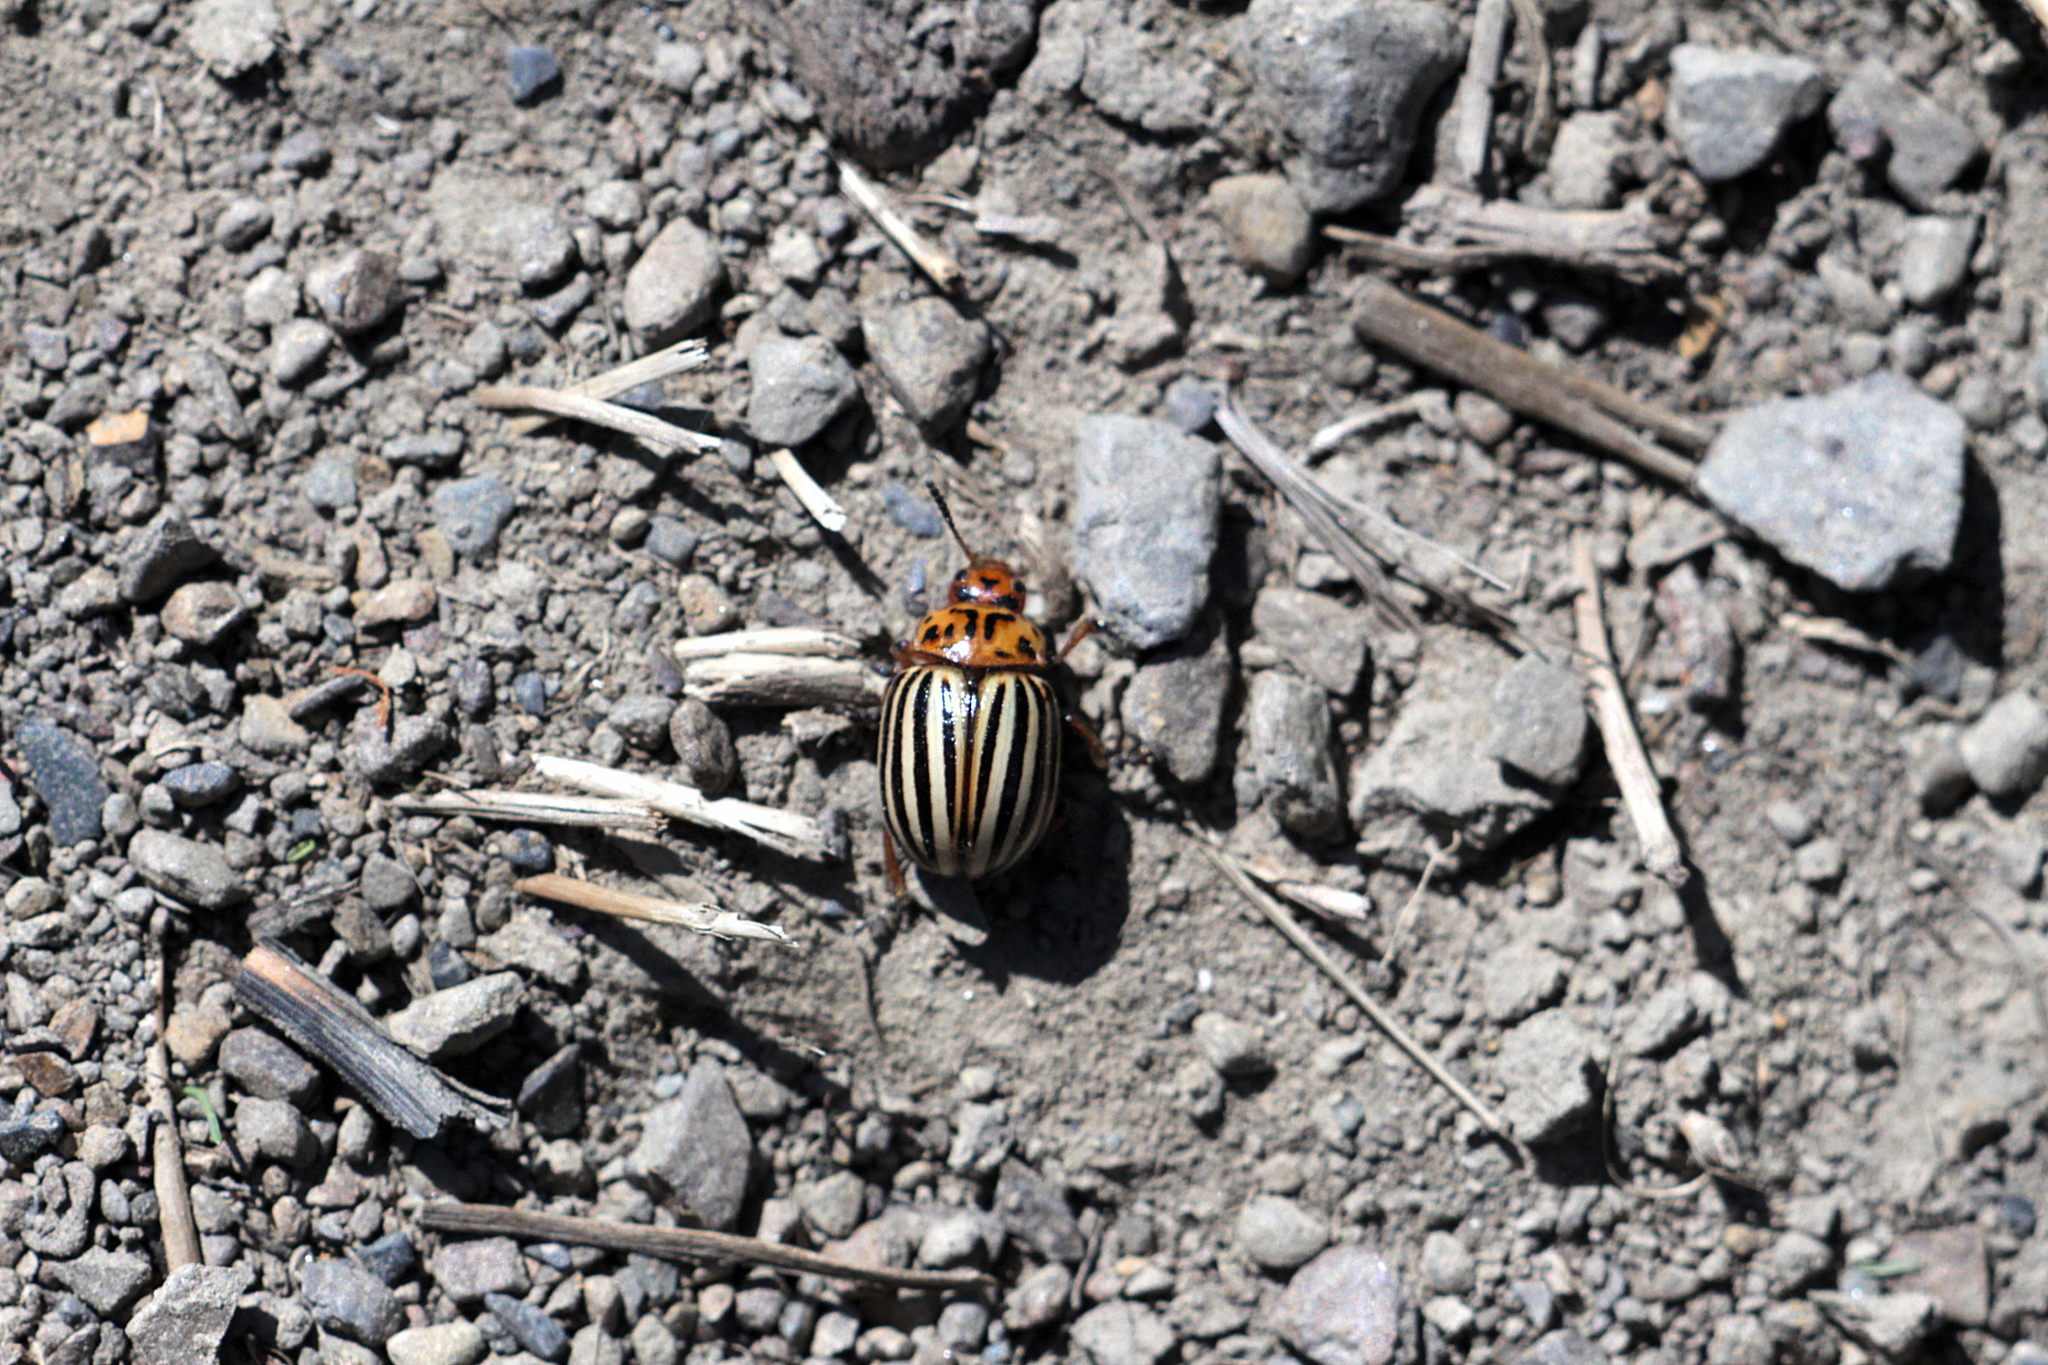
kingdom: Animalia
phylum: Arthropoda
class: Insecta
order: Coleoptera
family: Chrysomelidae
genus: Leptinotarsa
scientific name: Leptinotarsa decemlineata
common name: Colorado potato beetle
